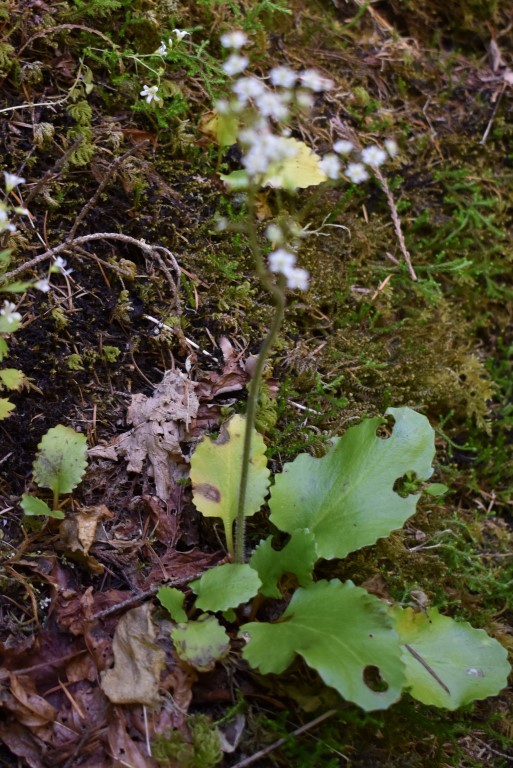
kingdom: Plantae
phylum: Tracheophyta
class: Magnoliopsida
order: Saxifragales
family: Saxifragaceae
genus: Micranthes
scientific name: Micranthes marshallii
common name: Marshall's saxifrage
